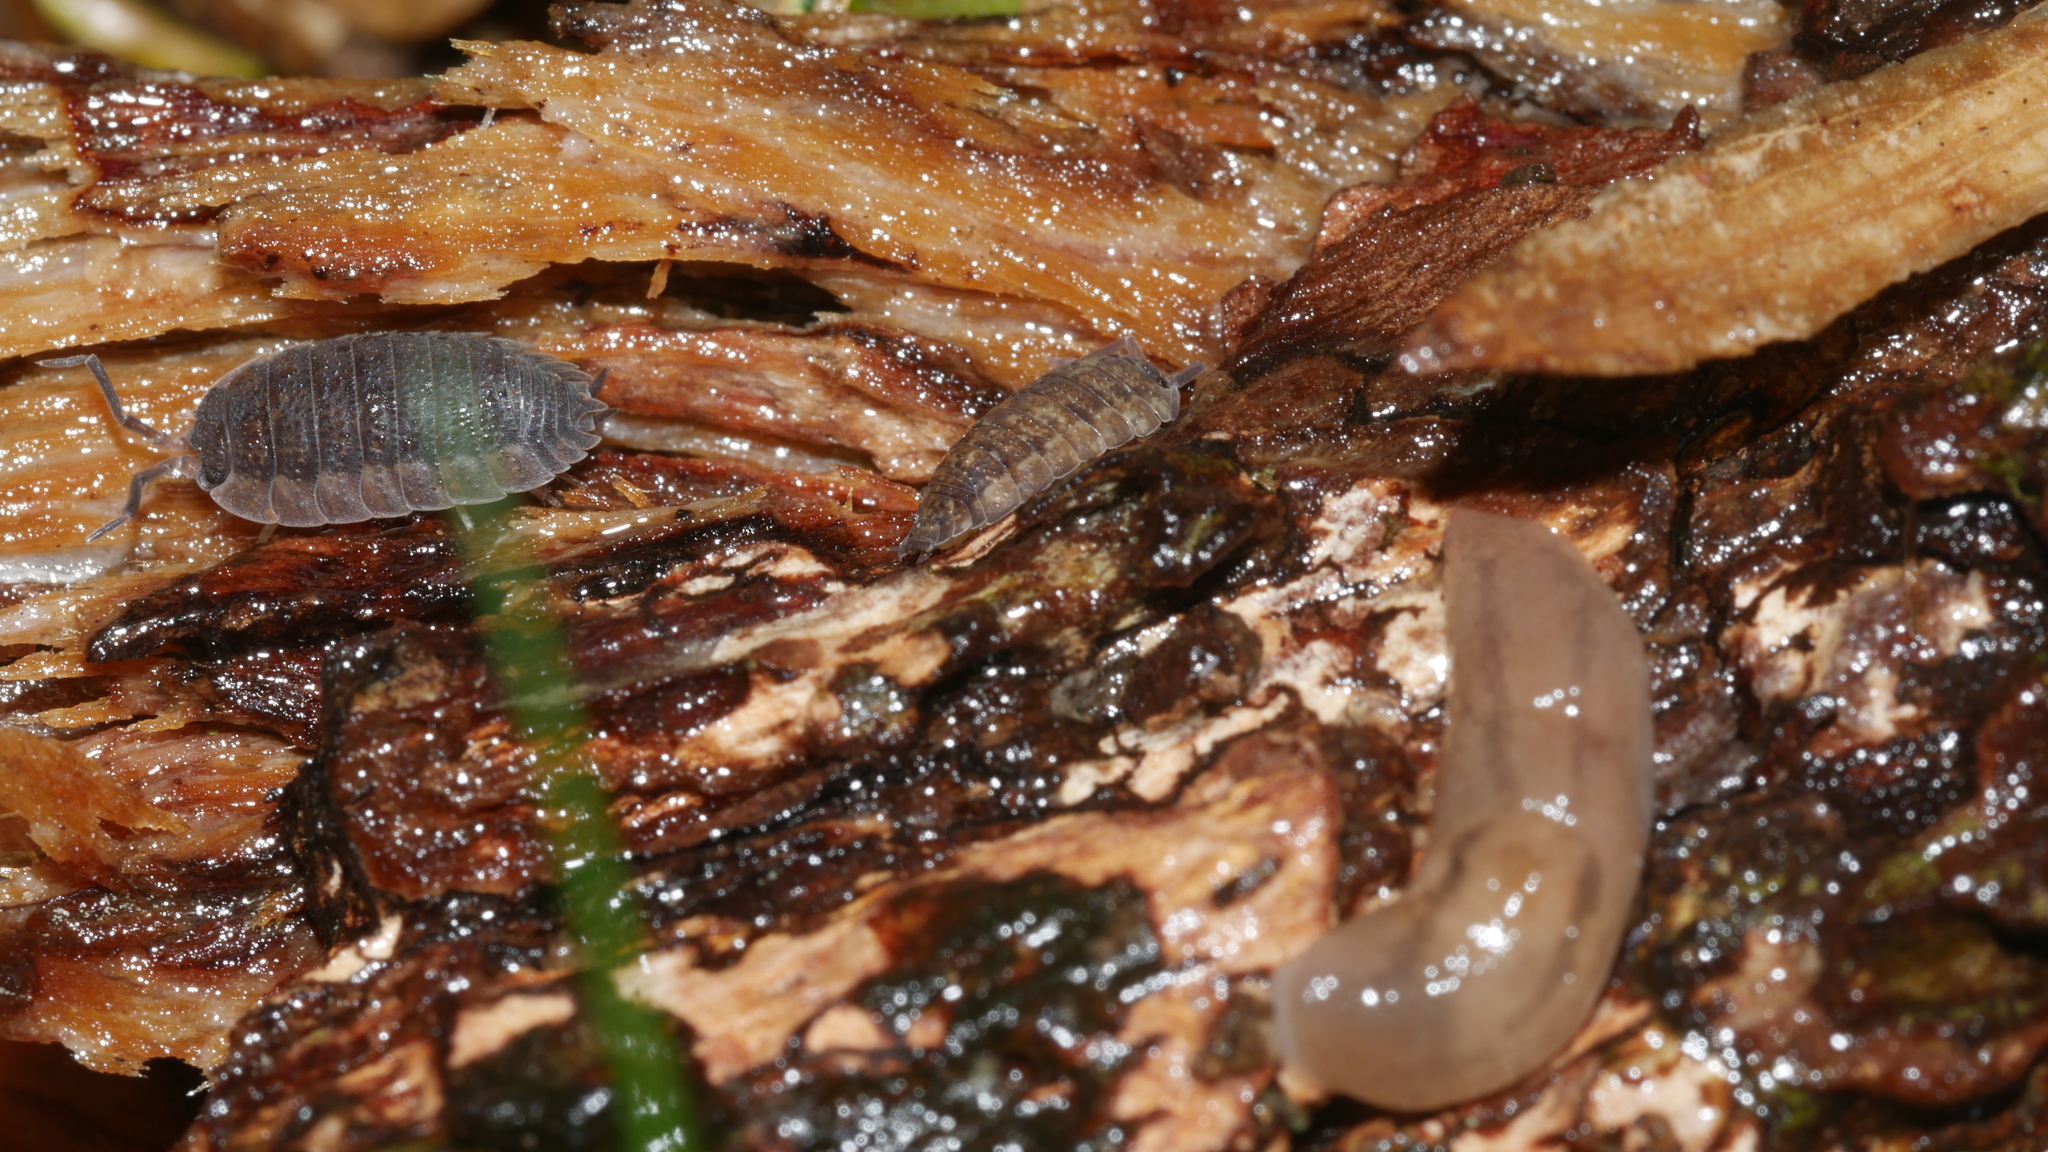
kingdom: Animalia
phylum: Arthropoda
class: Malacostraca
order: Isopoda
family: Porcellionidae
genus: Porcellio
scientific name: Porcellio scaber
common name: Common rough woodlouse
